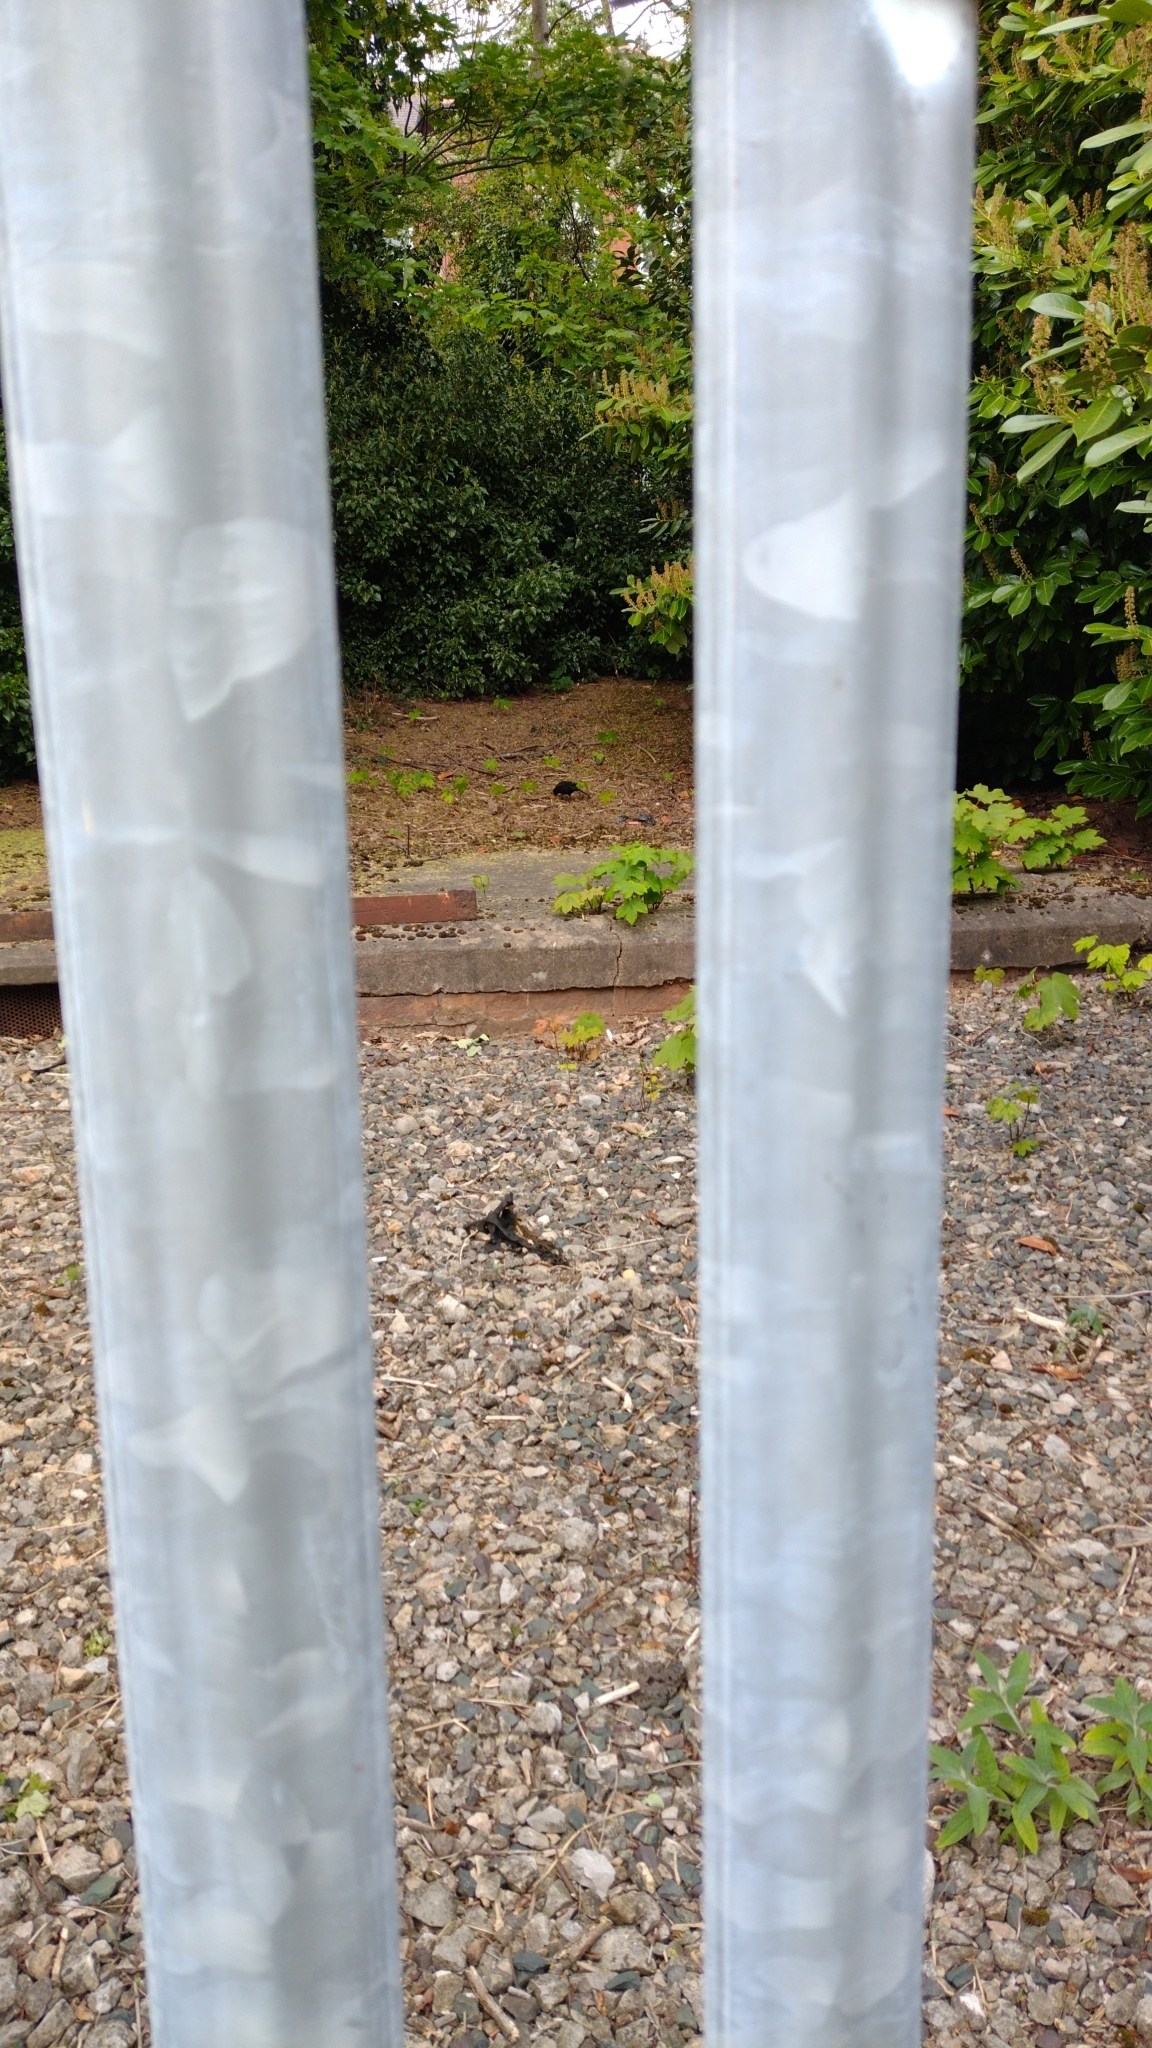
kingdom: Animalia
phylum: Chordata
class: Aves
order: Passeriformes
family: Turdidae
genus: Turdus
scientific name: Turdus merula
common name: Common blackbird
